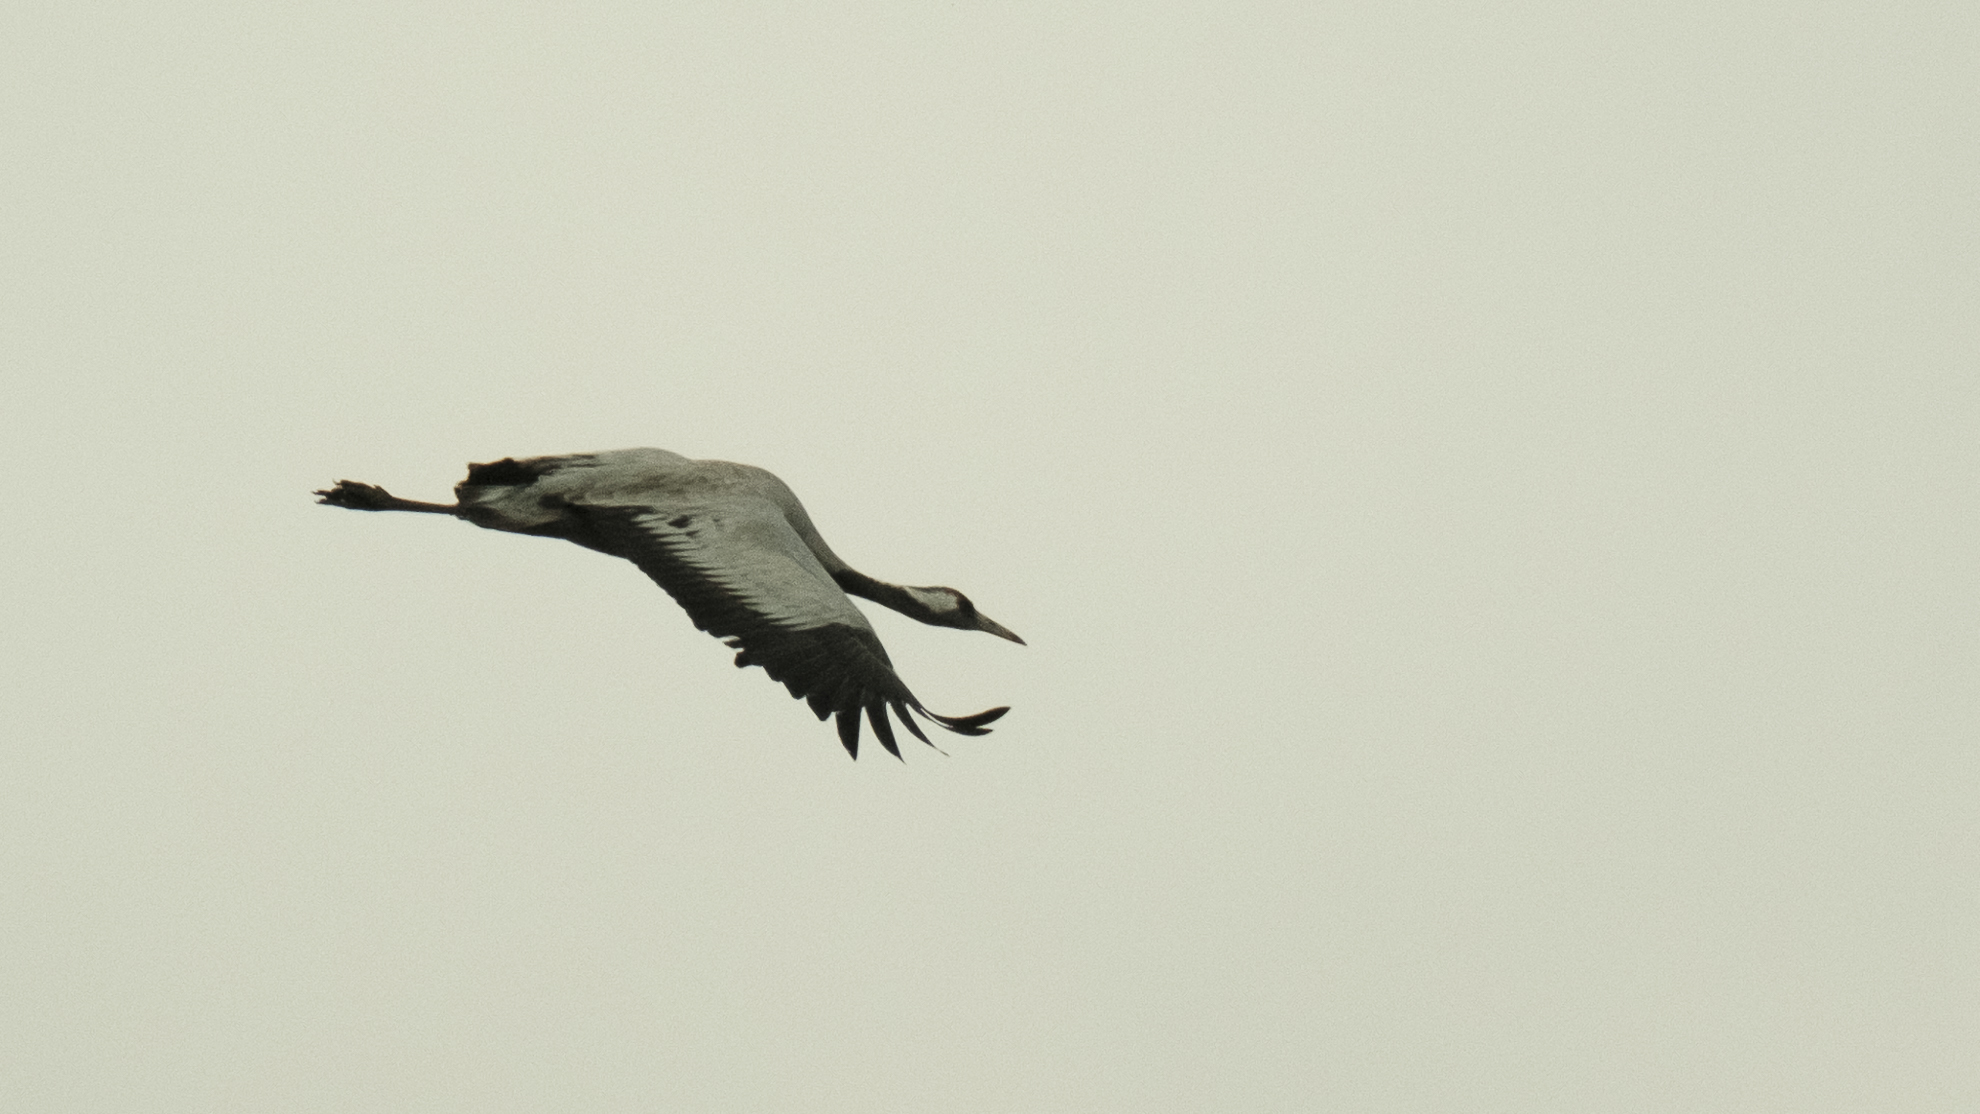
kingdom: Animalia
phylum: Chordata
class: Aves
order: Gruiformes
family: Gruidae
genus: Grus
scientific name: Grus grus
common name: Common crane
